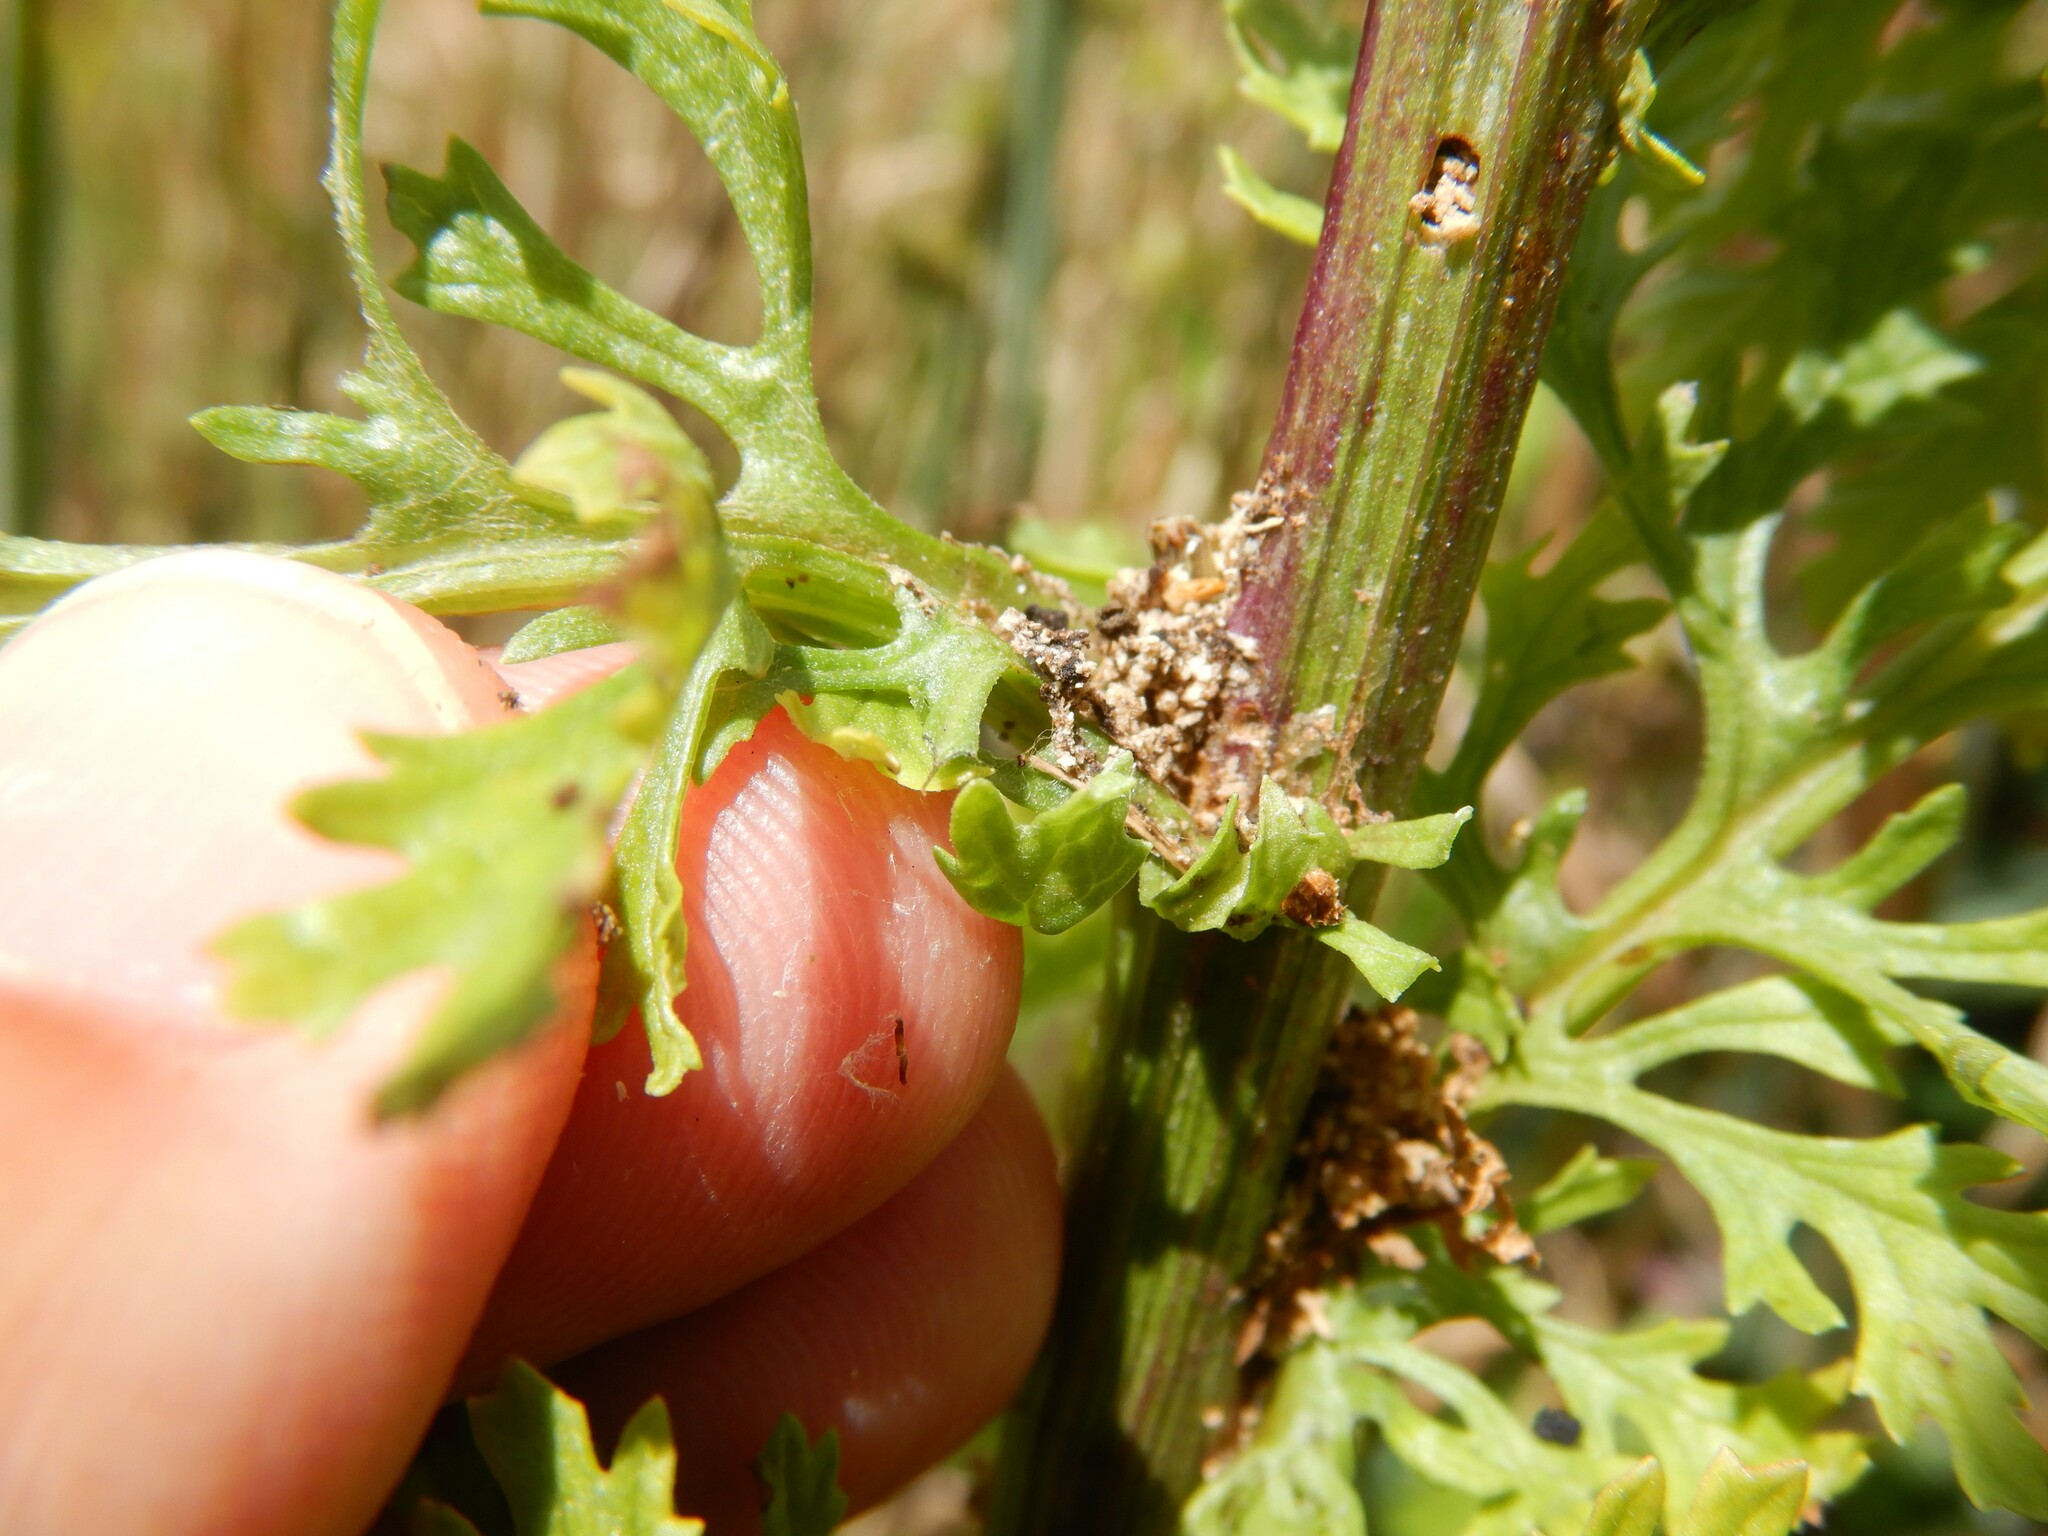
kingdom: Animalia
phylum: Arthropoda
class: Insecta
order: Lepidoptera
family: Pterophoridae
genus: Platyptilia
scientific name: Platyptilia isodactylus
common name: Hoary plume
